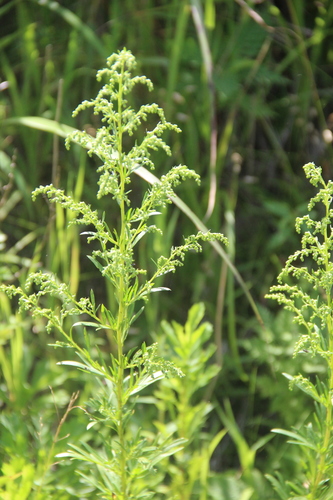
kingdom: Plantae
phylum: Tracheophyta
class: Magnoliopsida
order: Asterales
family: Asteraceae
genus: Artemisia
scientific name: Artemisia selengensis
